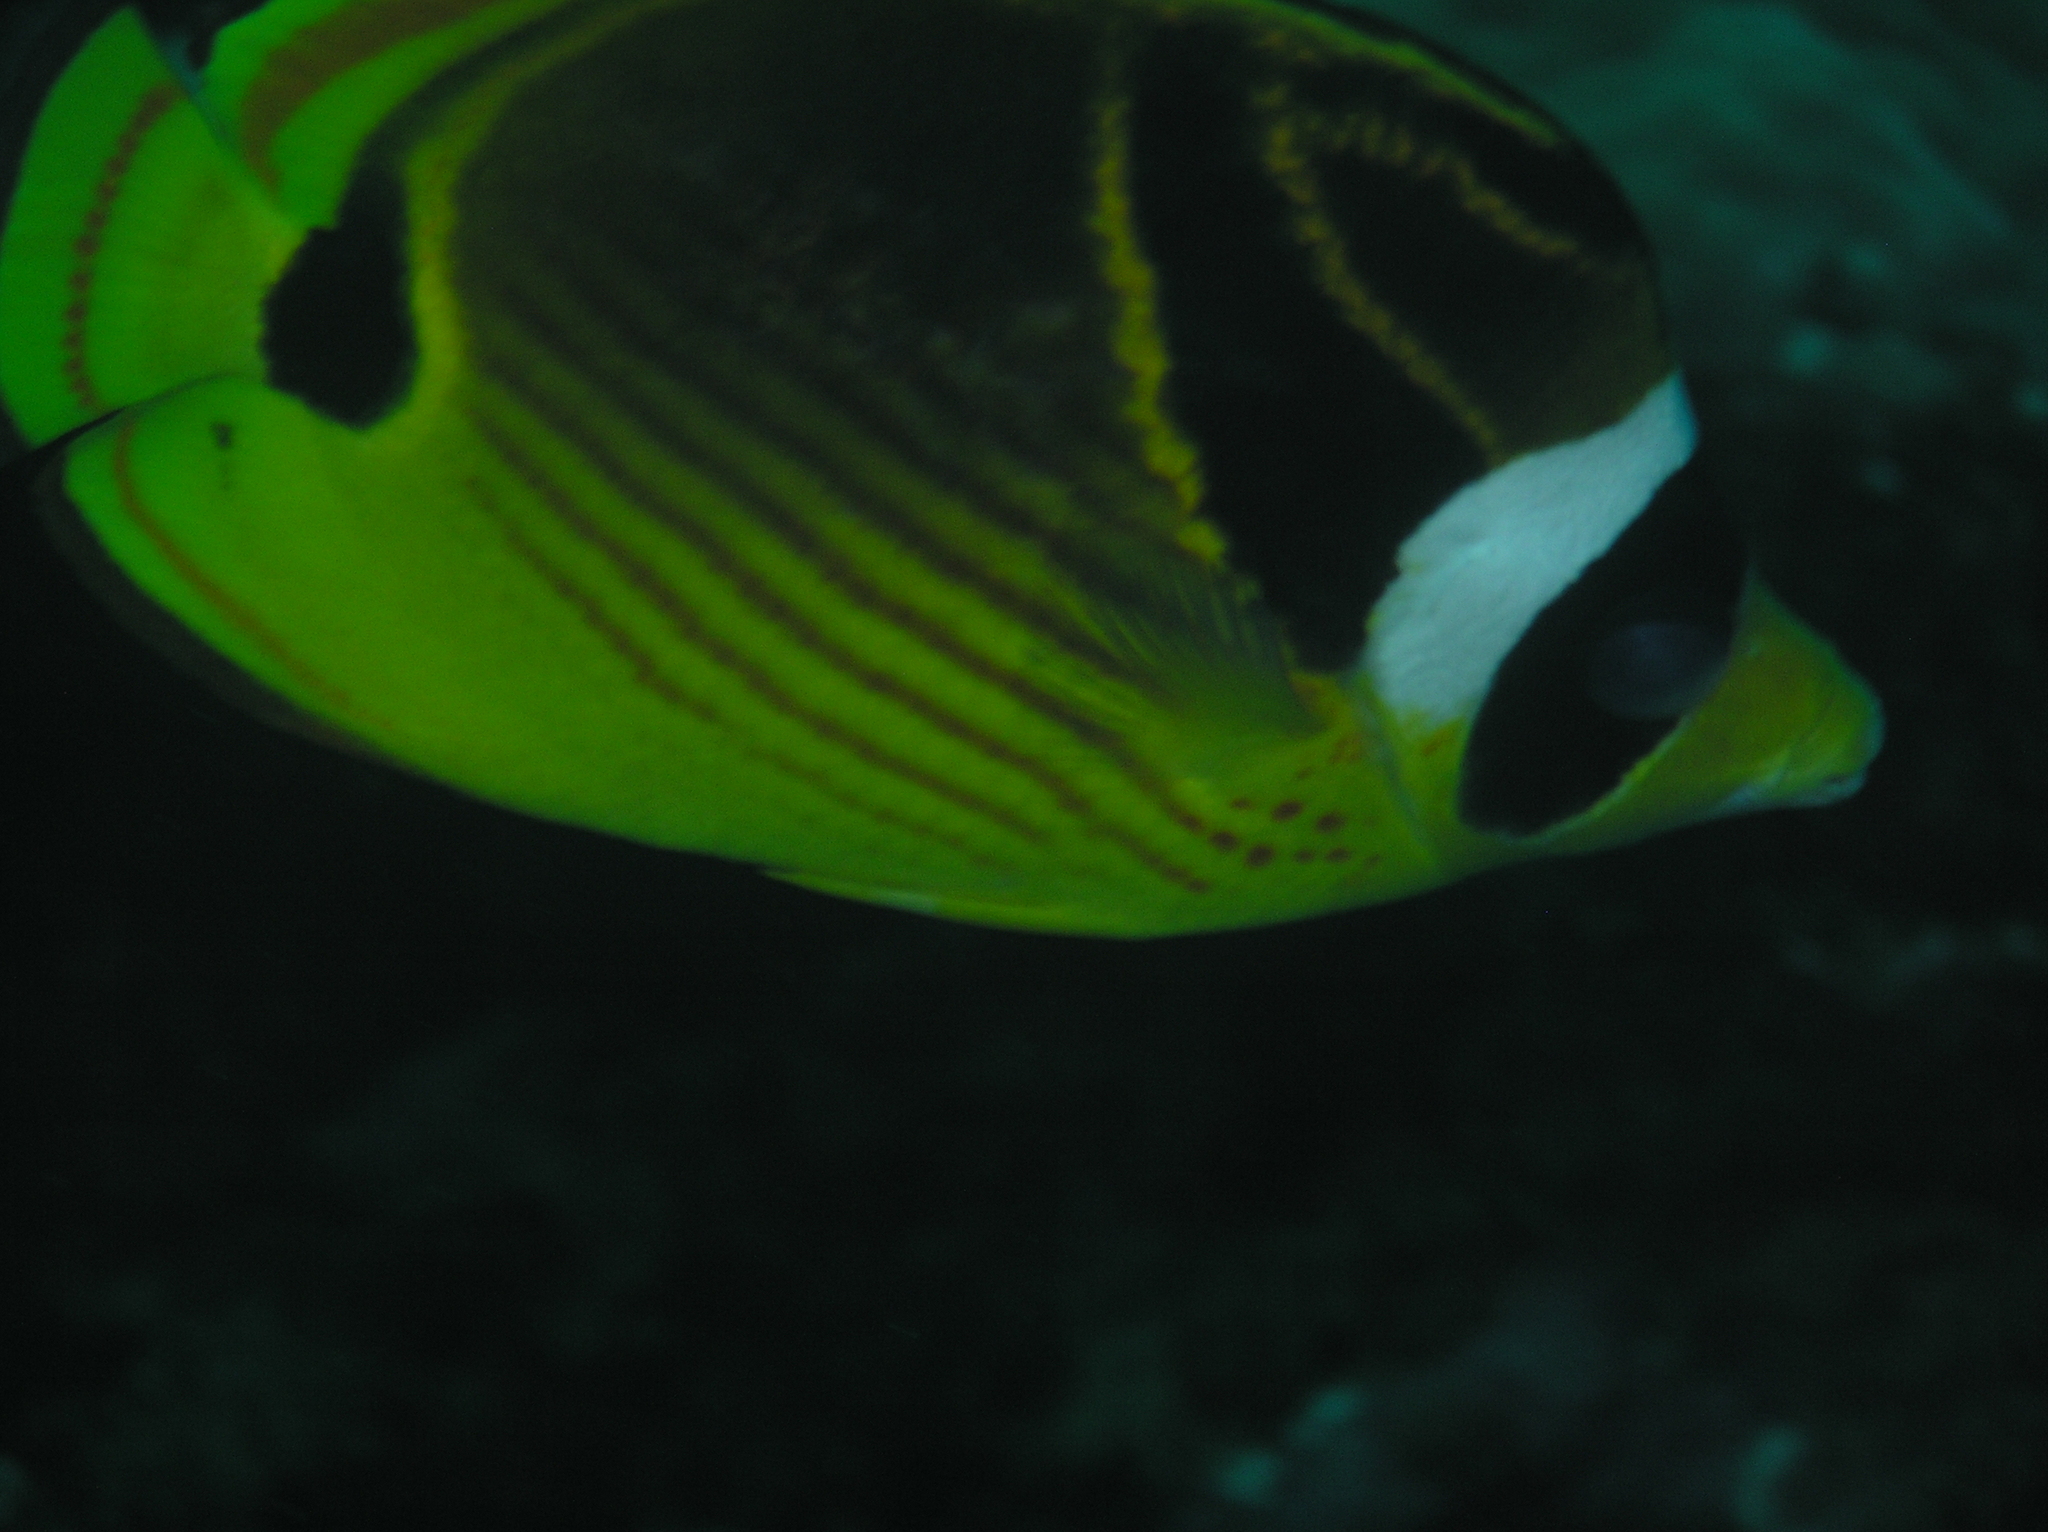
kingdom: Animalia
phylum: Chordata
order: Perciformes
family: Chaetodontidae
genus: Chaetodon
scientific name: Chaetodon lunula
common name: Raccoon butterflyfish
